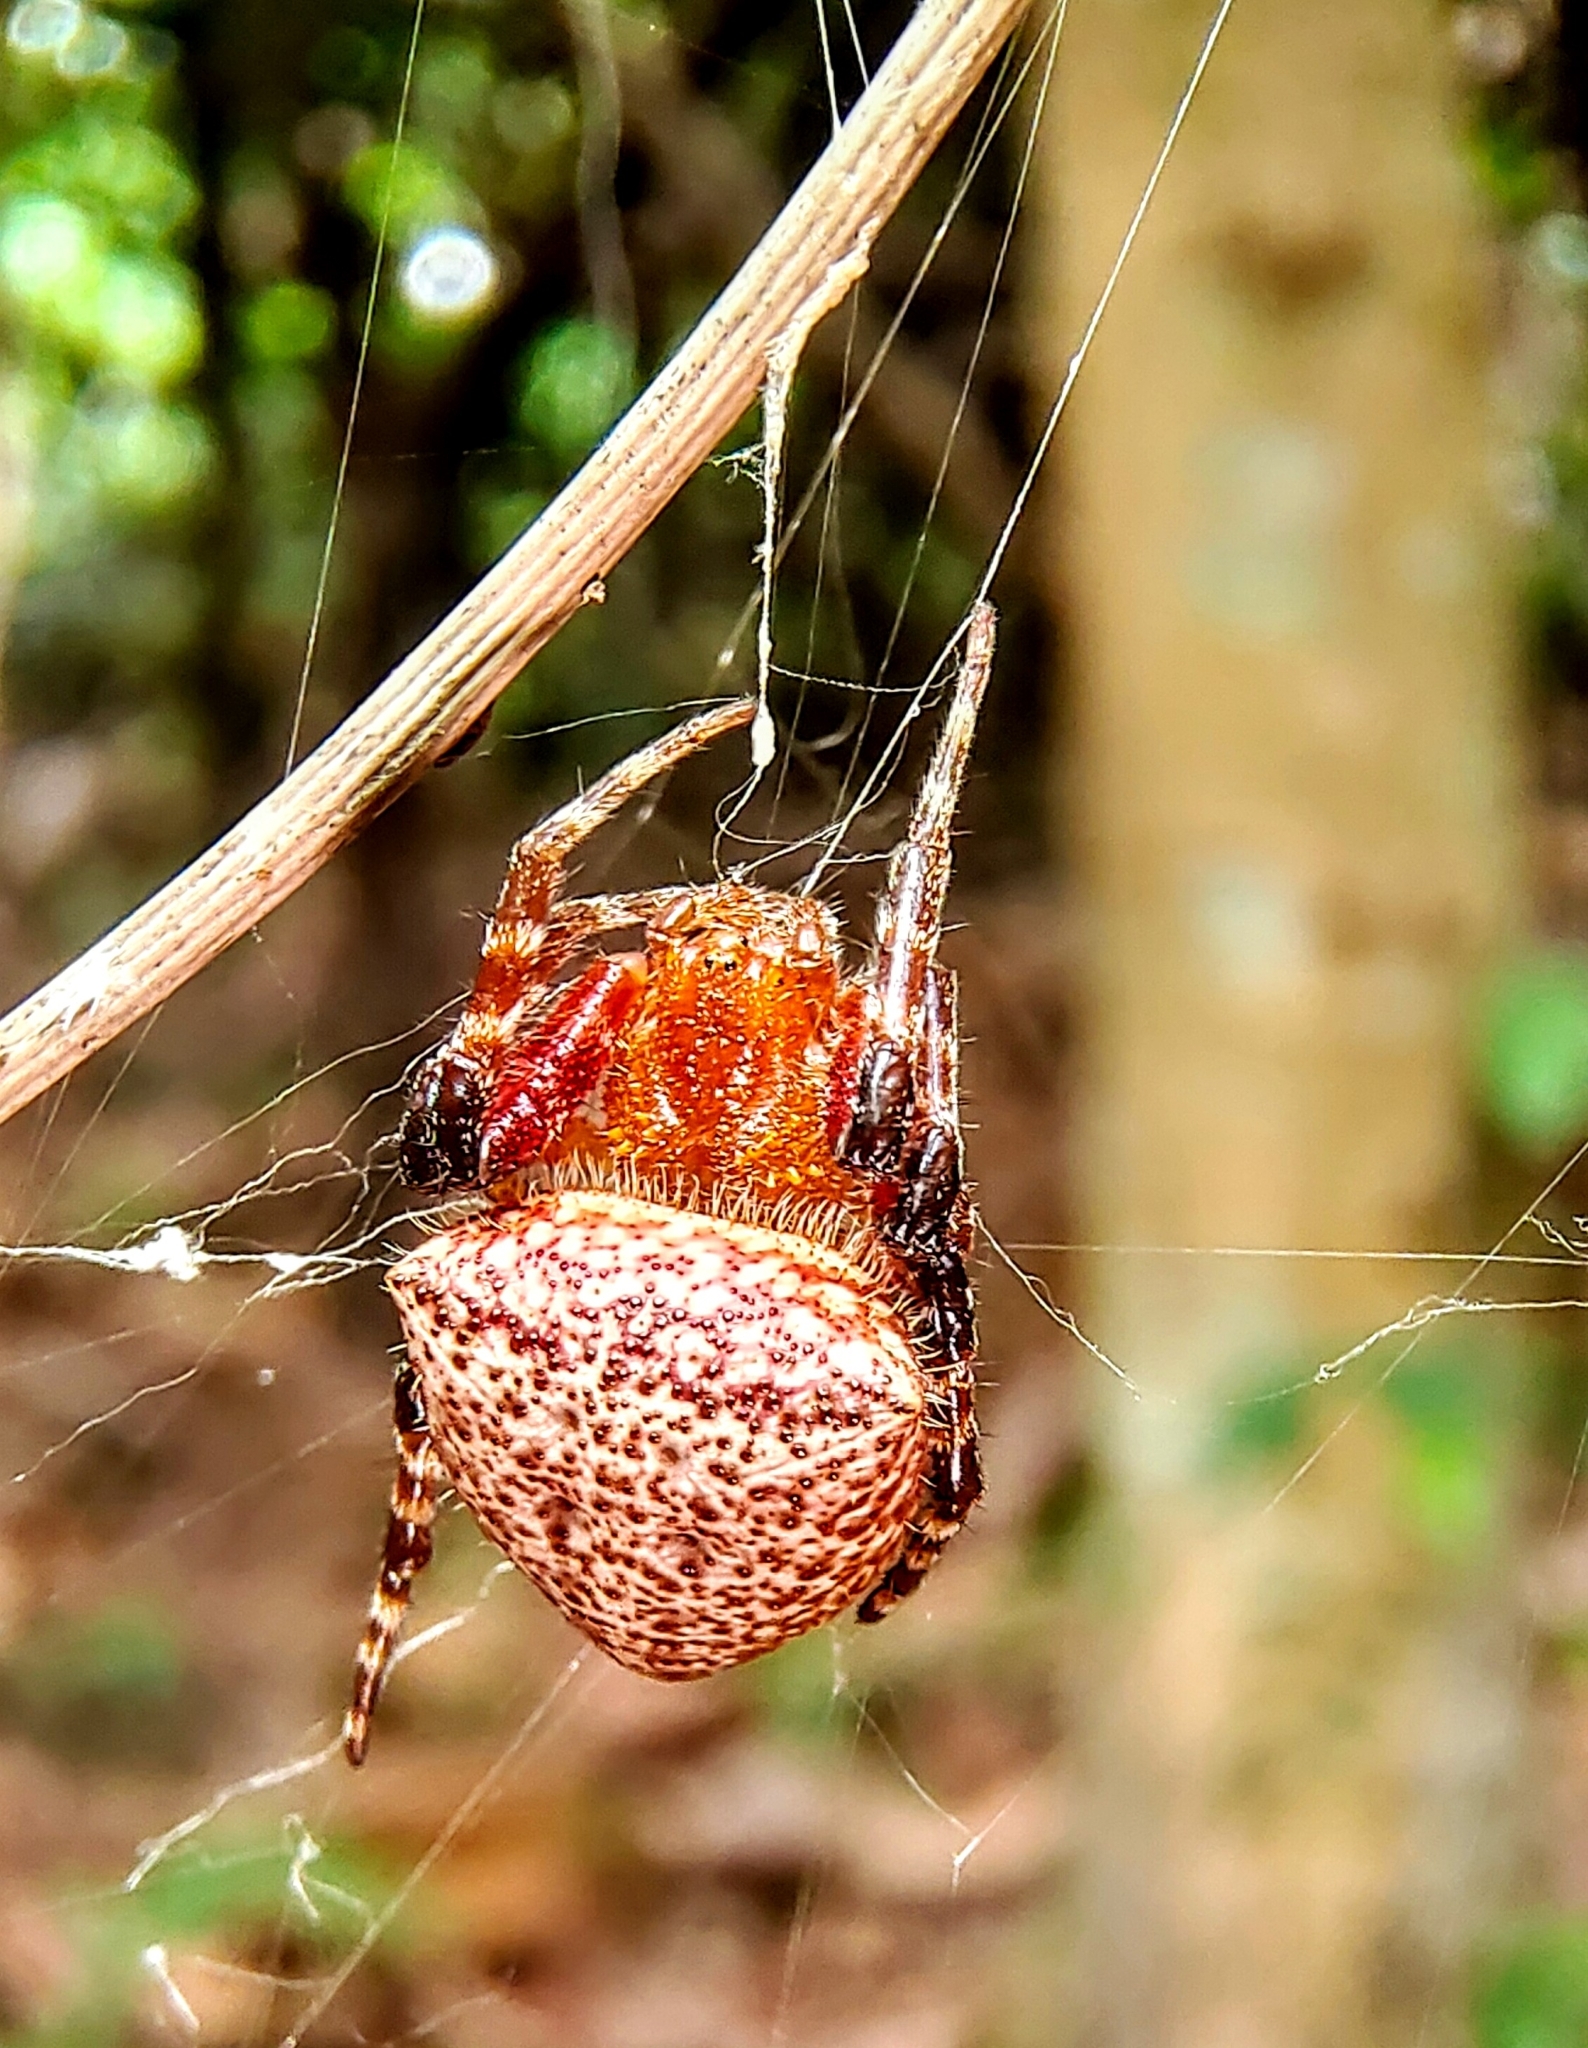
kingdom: Animalia
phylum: Arthropoda
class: Arachnida
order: Araneae
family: Araneidae
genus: Cyrtophora
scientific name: Cyrtophora unicolor
